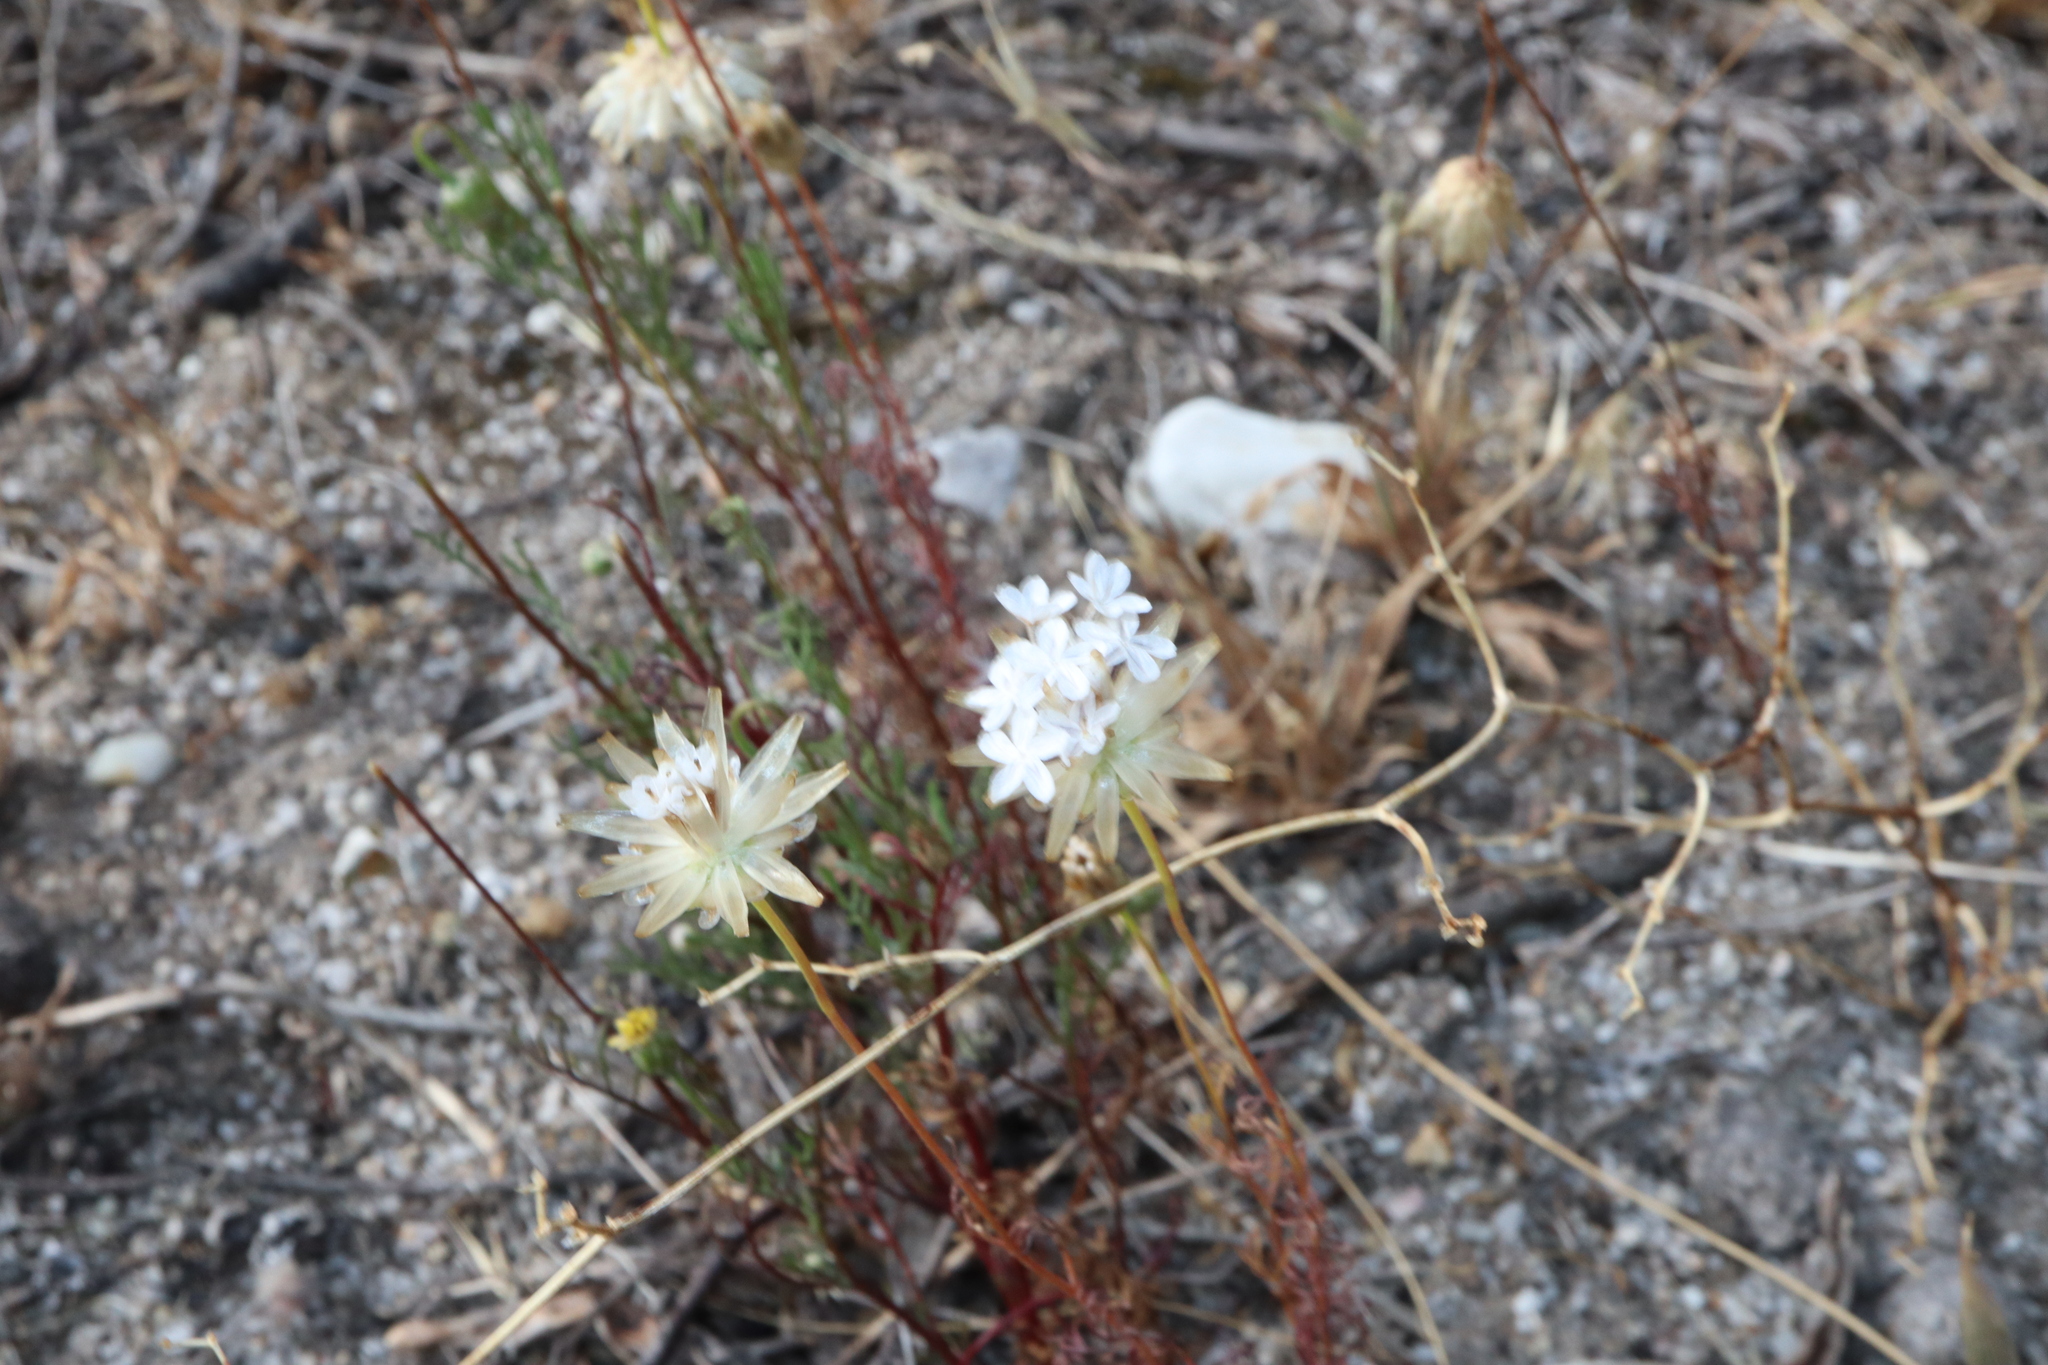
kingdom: Plantae
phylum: Tracheophyta
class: Magnoliopsida
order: Asterales
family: Asteraceae
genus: Ursinia
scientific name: Ursinia anthemoides
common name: Ursinia
